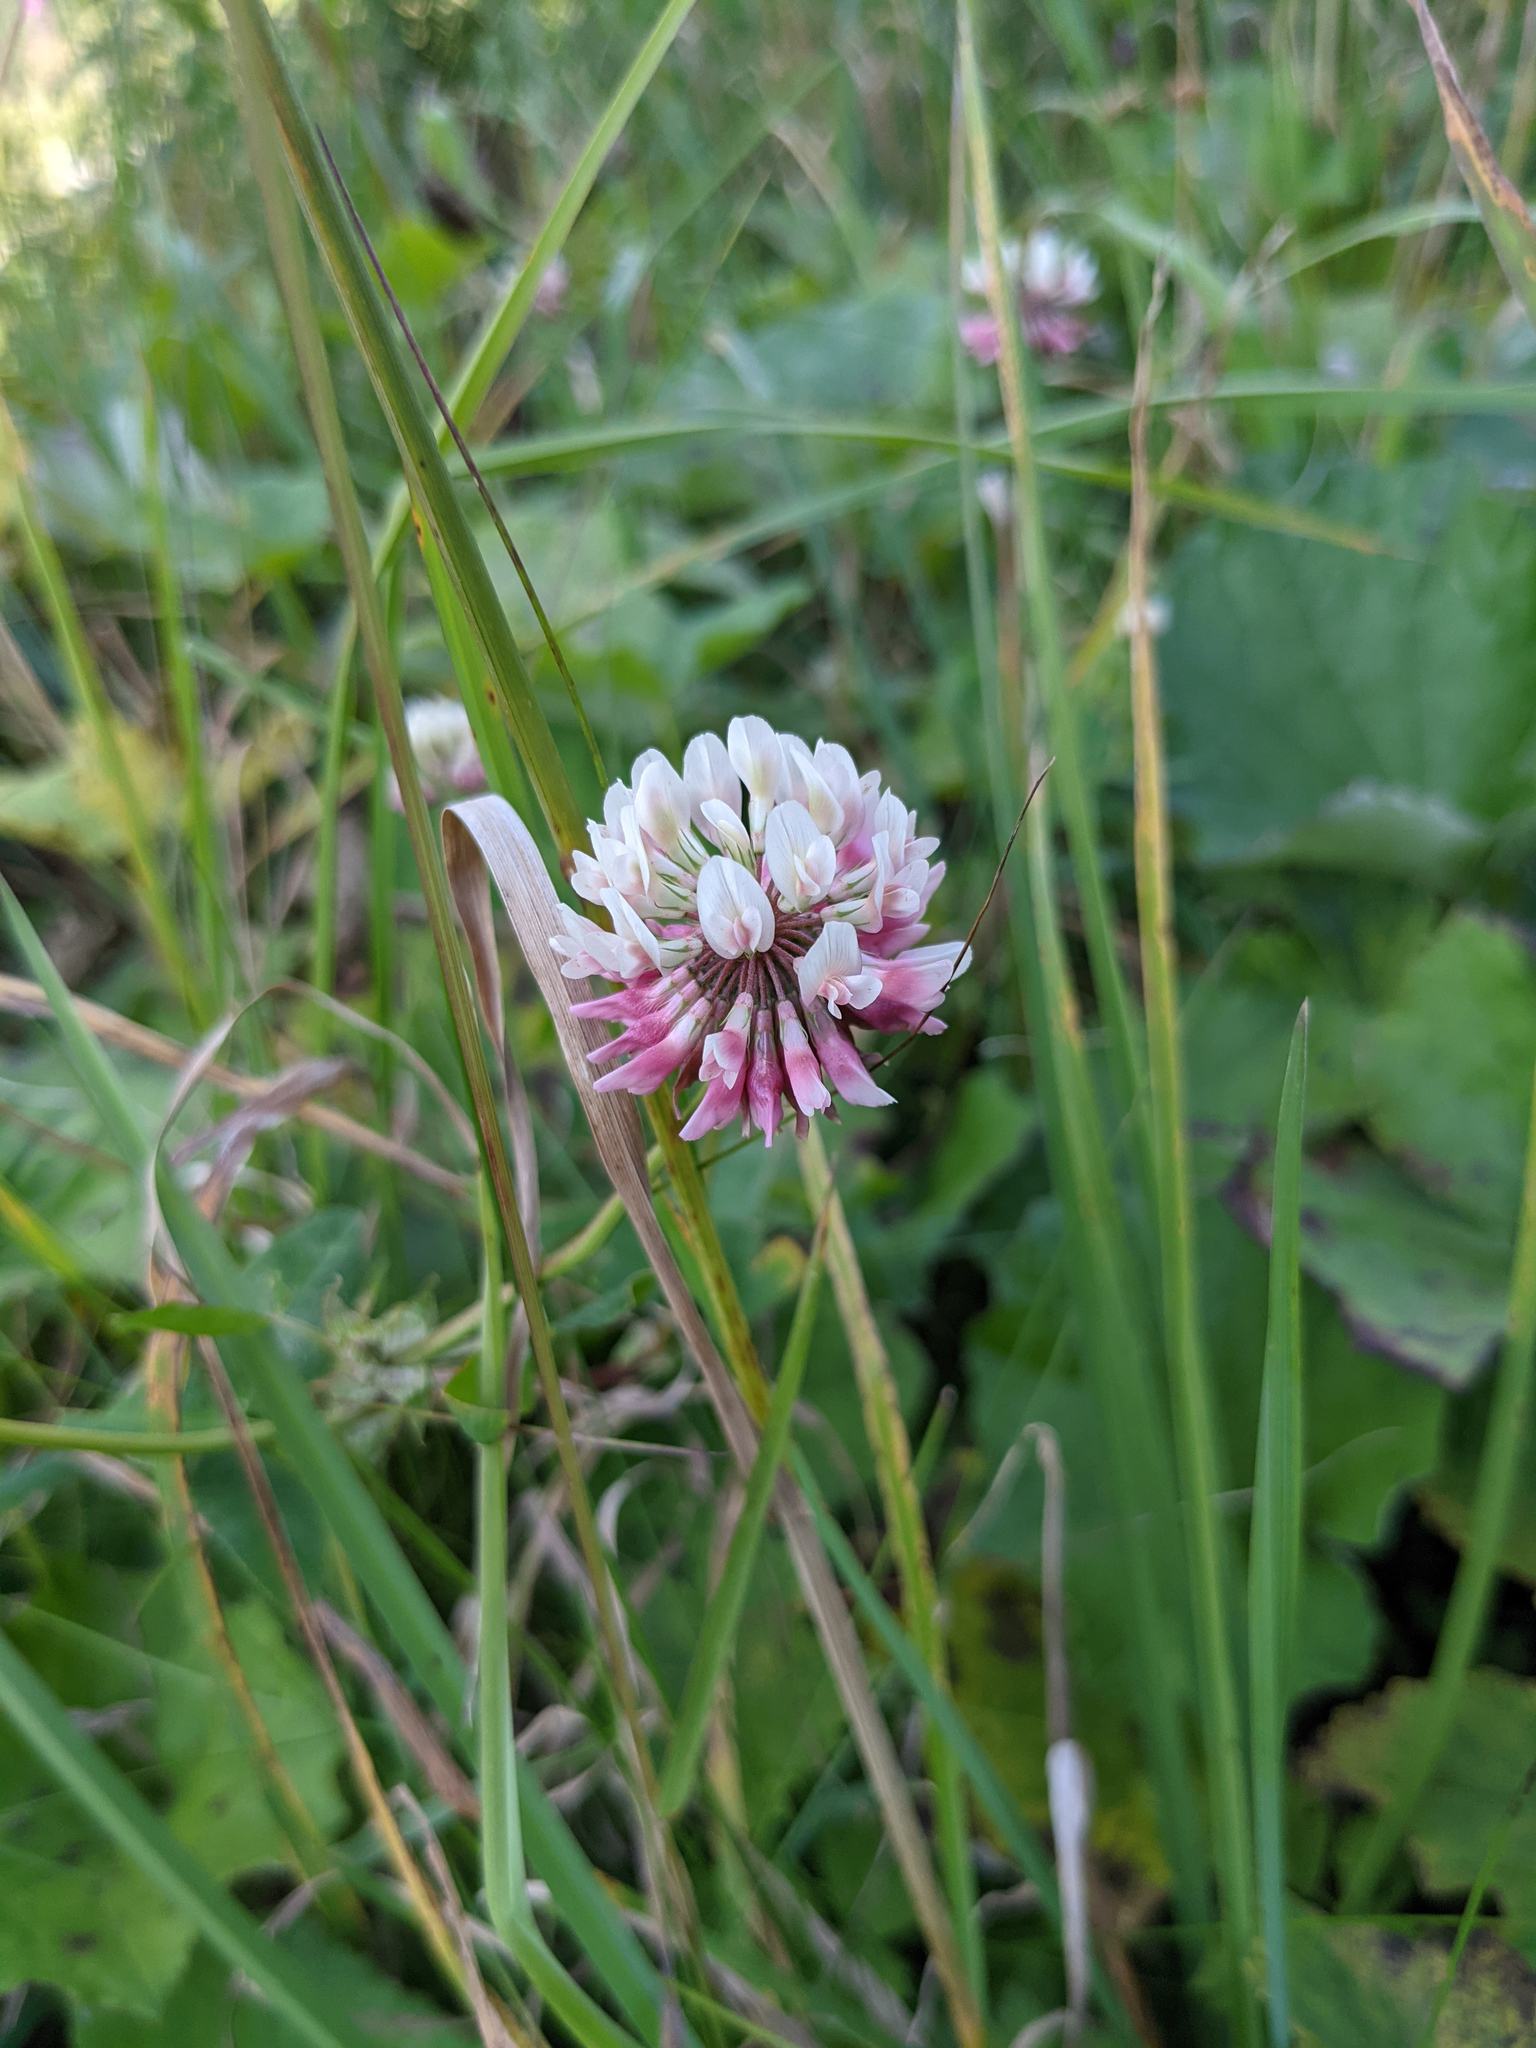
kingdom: Plantae
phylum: Tracheophyta
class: Magnoliopsida
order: Fabales
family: Fabaceae
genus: Trifolium
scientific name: Trifolium hybridum
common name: Alsike clover
